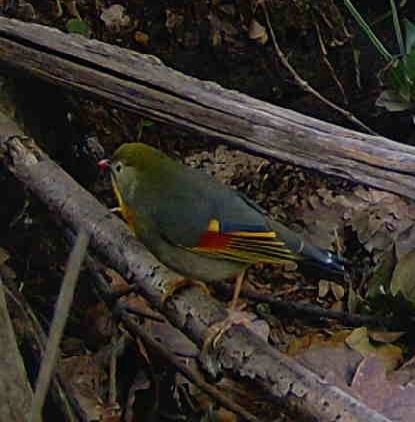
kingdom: Animalia
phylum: Chordata
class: Aves
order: Passeriformes
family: Leiothrichidae
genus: Leiothrix
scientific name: Leiothrix lutea
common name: Red-billed leiothrix
